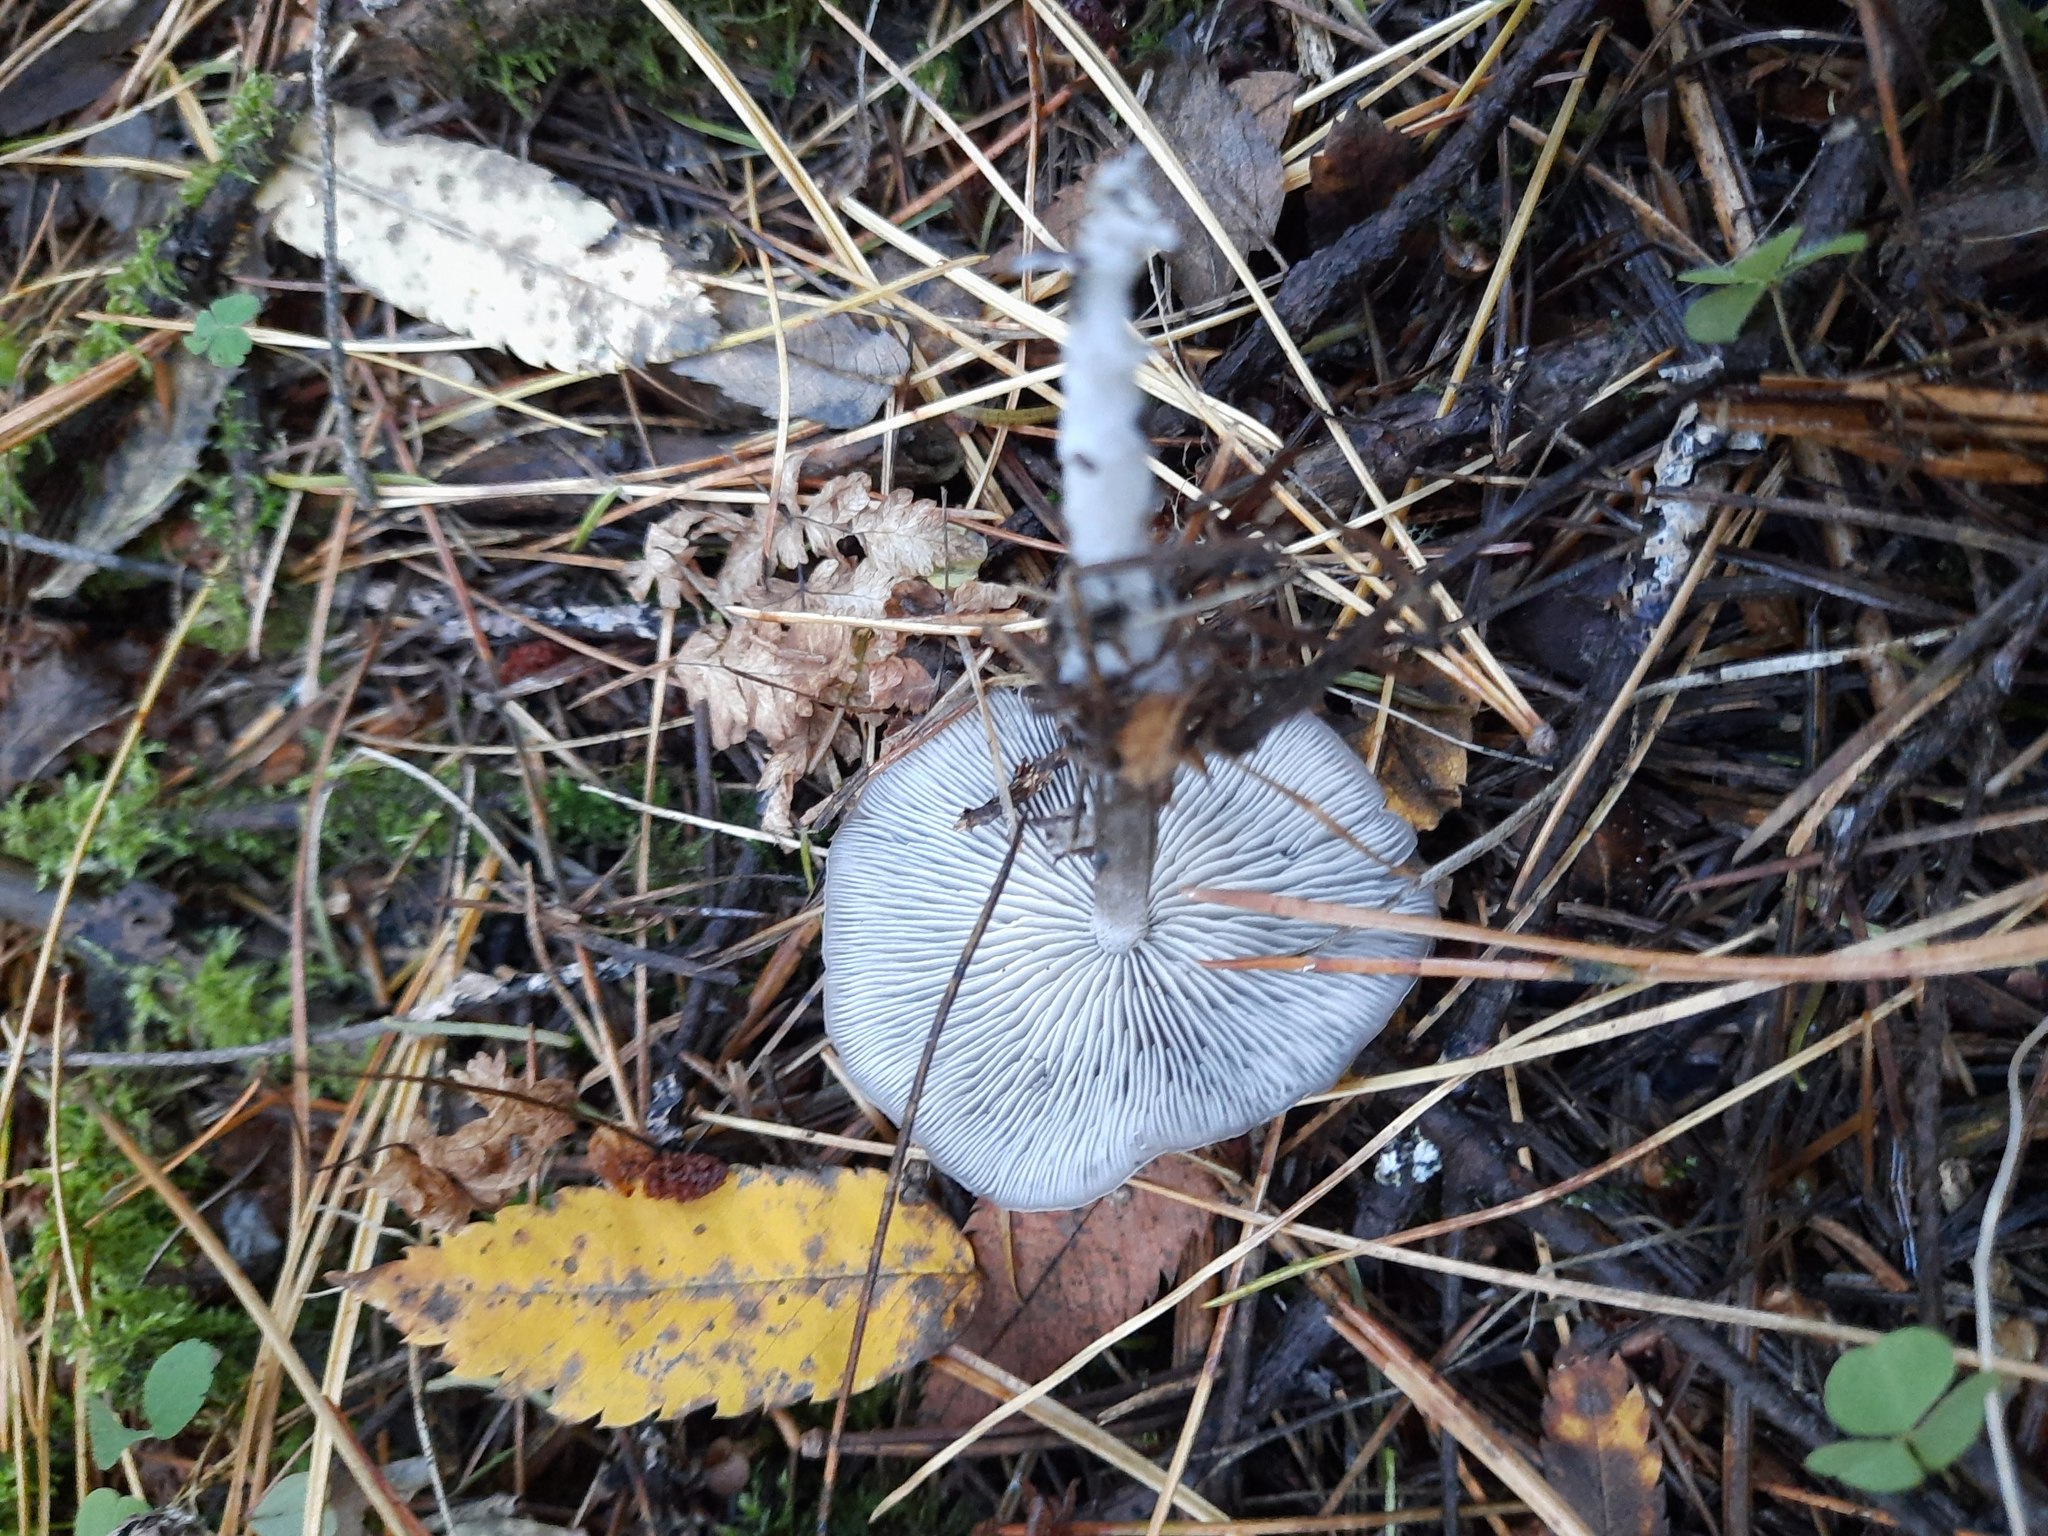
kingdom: Fungi
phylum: Basidiomycota
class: Agaricomycetes
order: Agaricales
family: Lyophyllaceae
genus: Tephrocybe
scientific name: Tephrocybe rancida
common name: Rancid greyling
